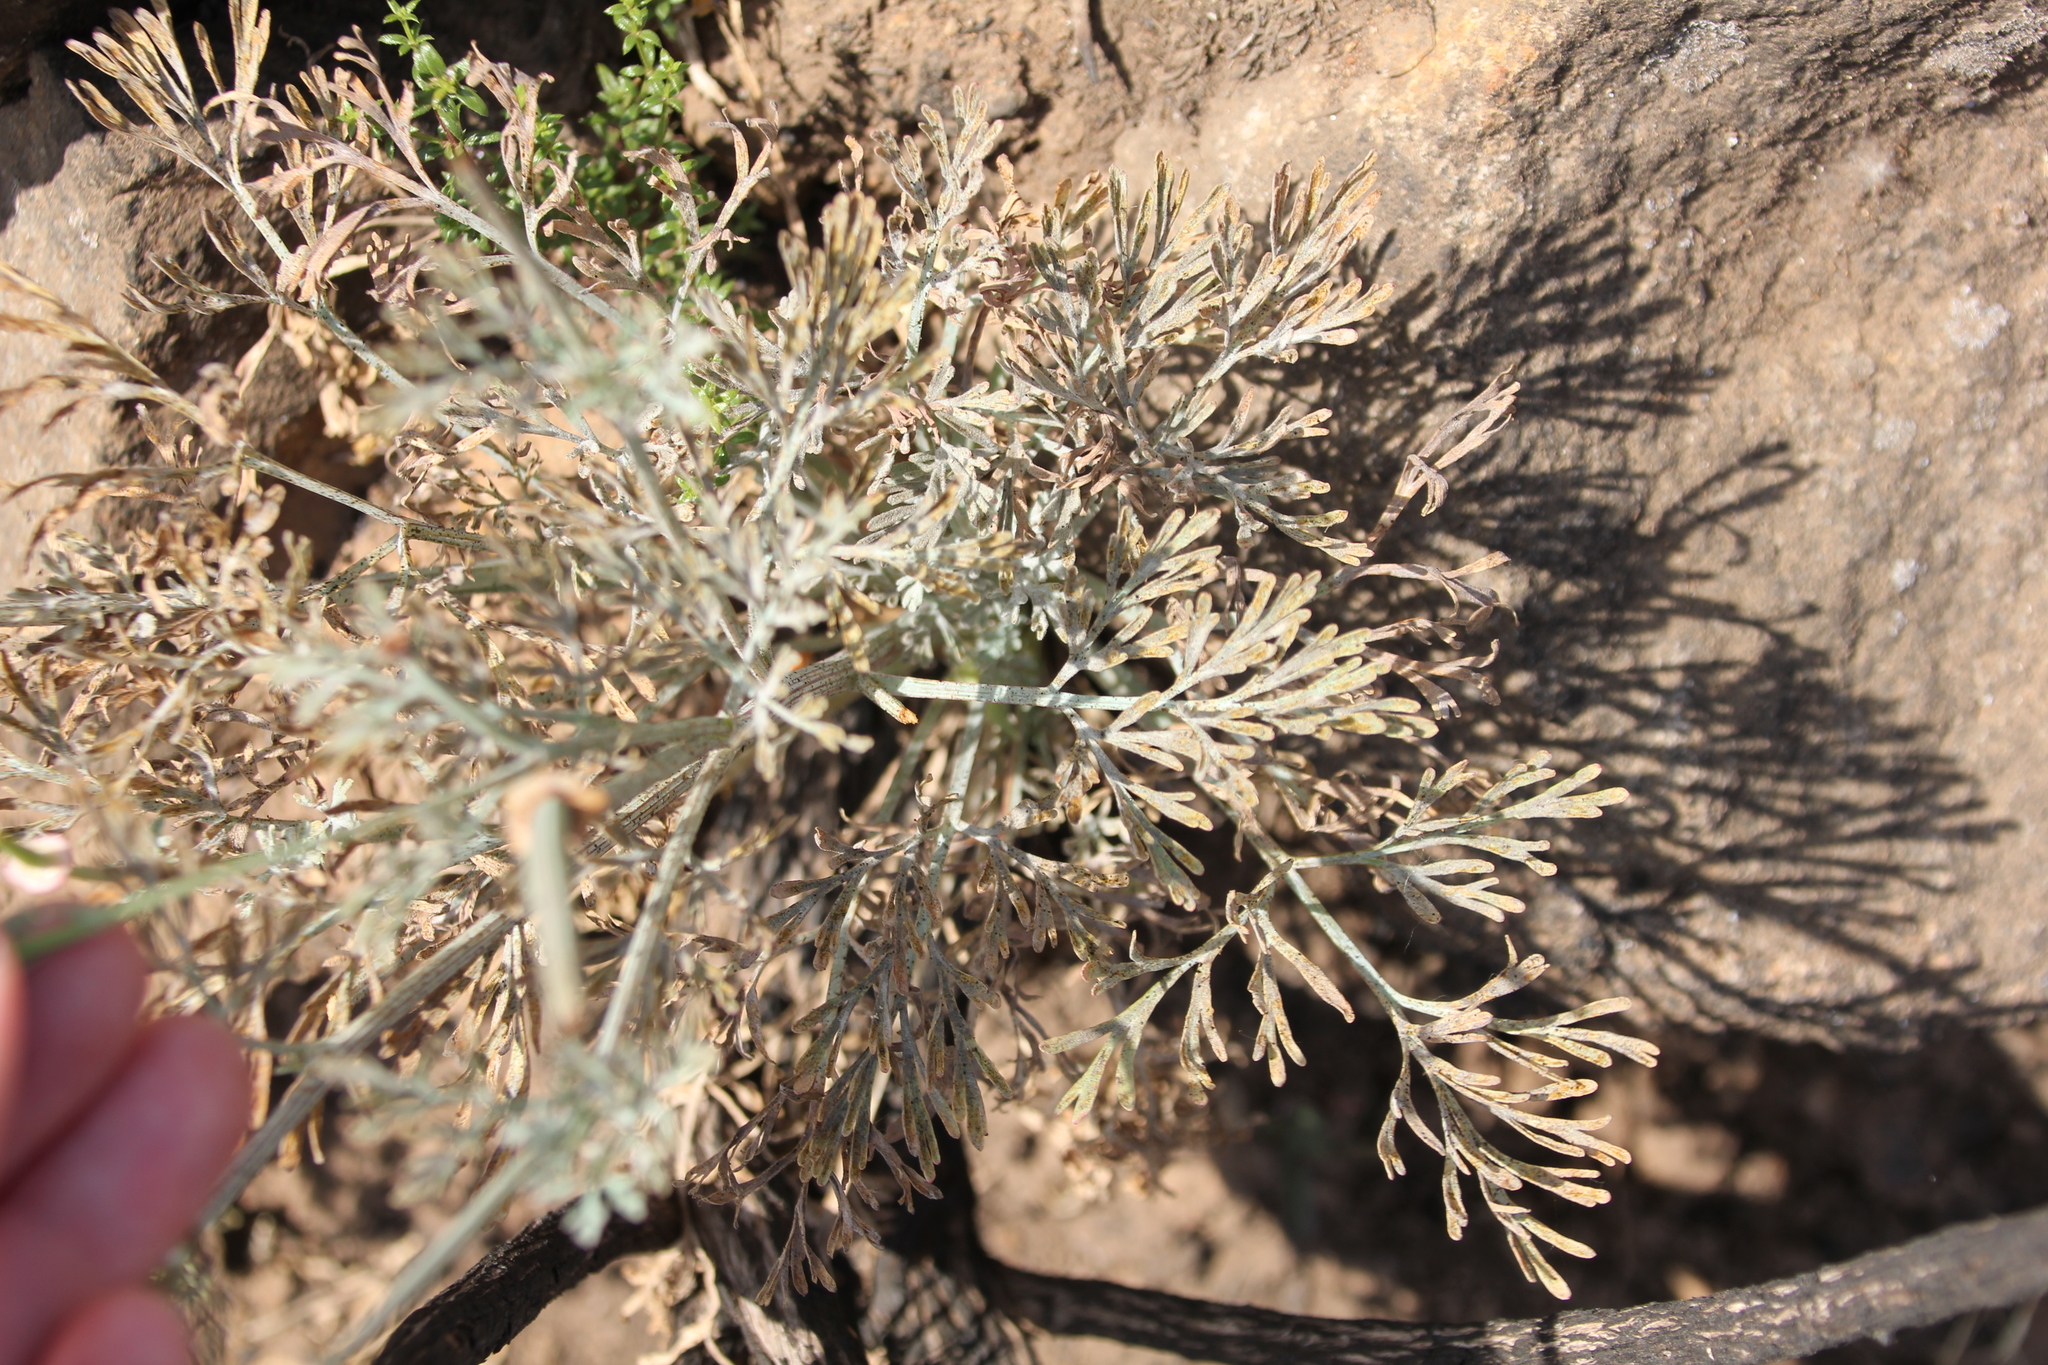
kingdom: Plantae
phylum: Tracheophyta
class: Magnoliopsida
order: Ranunculales
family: Papaveraceae
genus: Eschscholzia
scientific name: Eschscholzia californica
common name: California poppy
